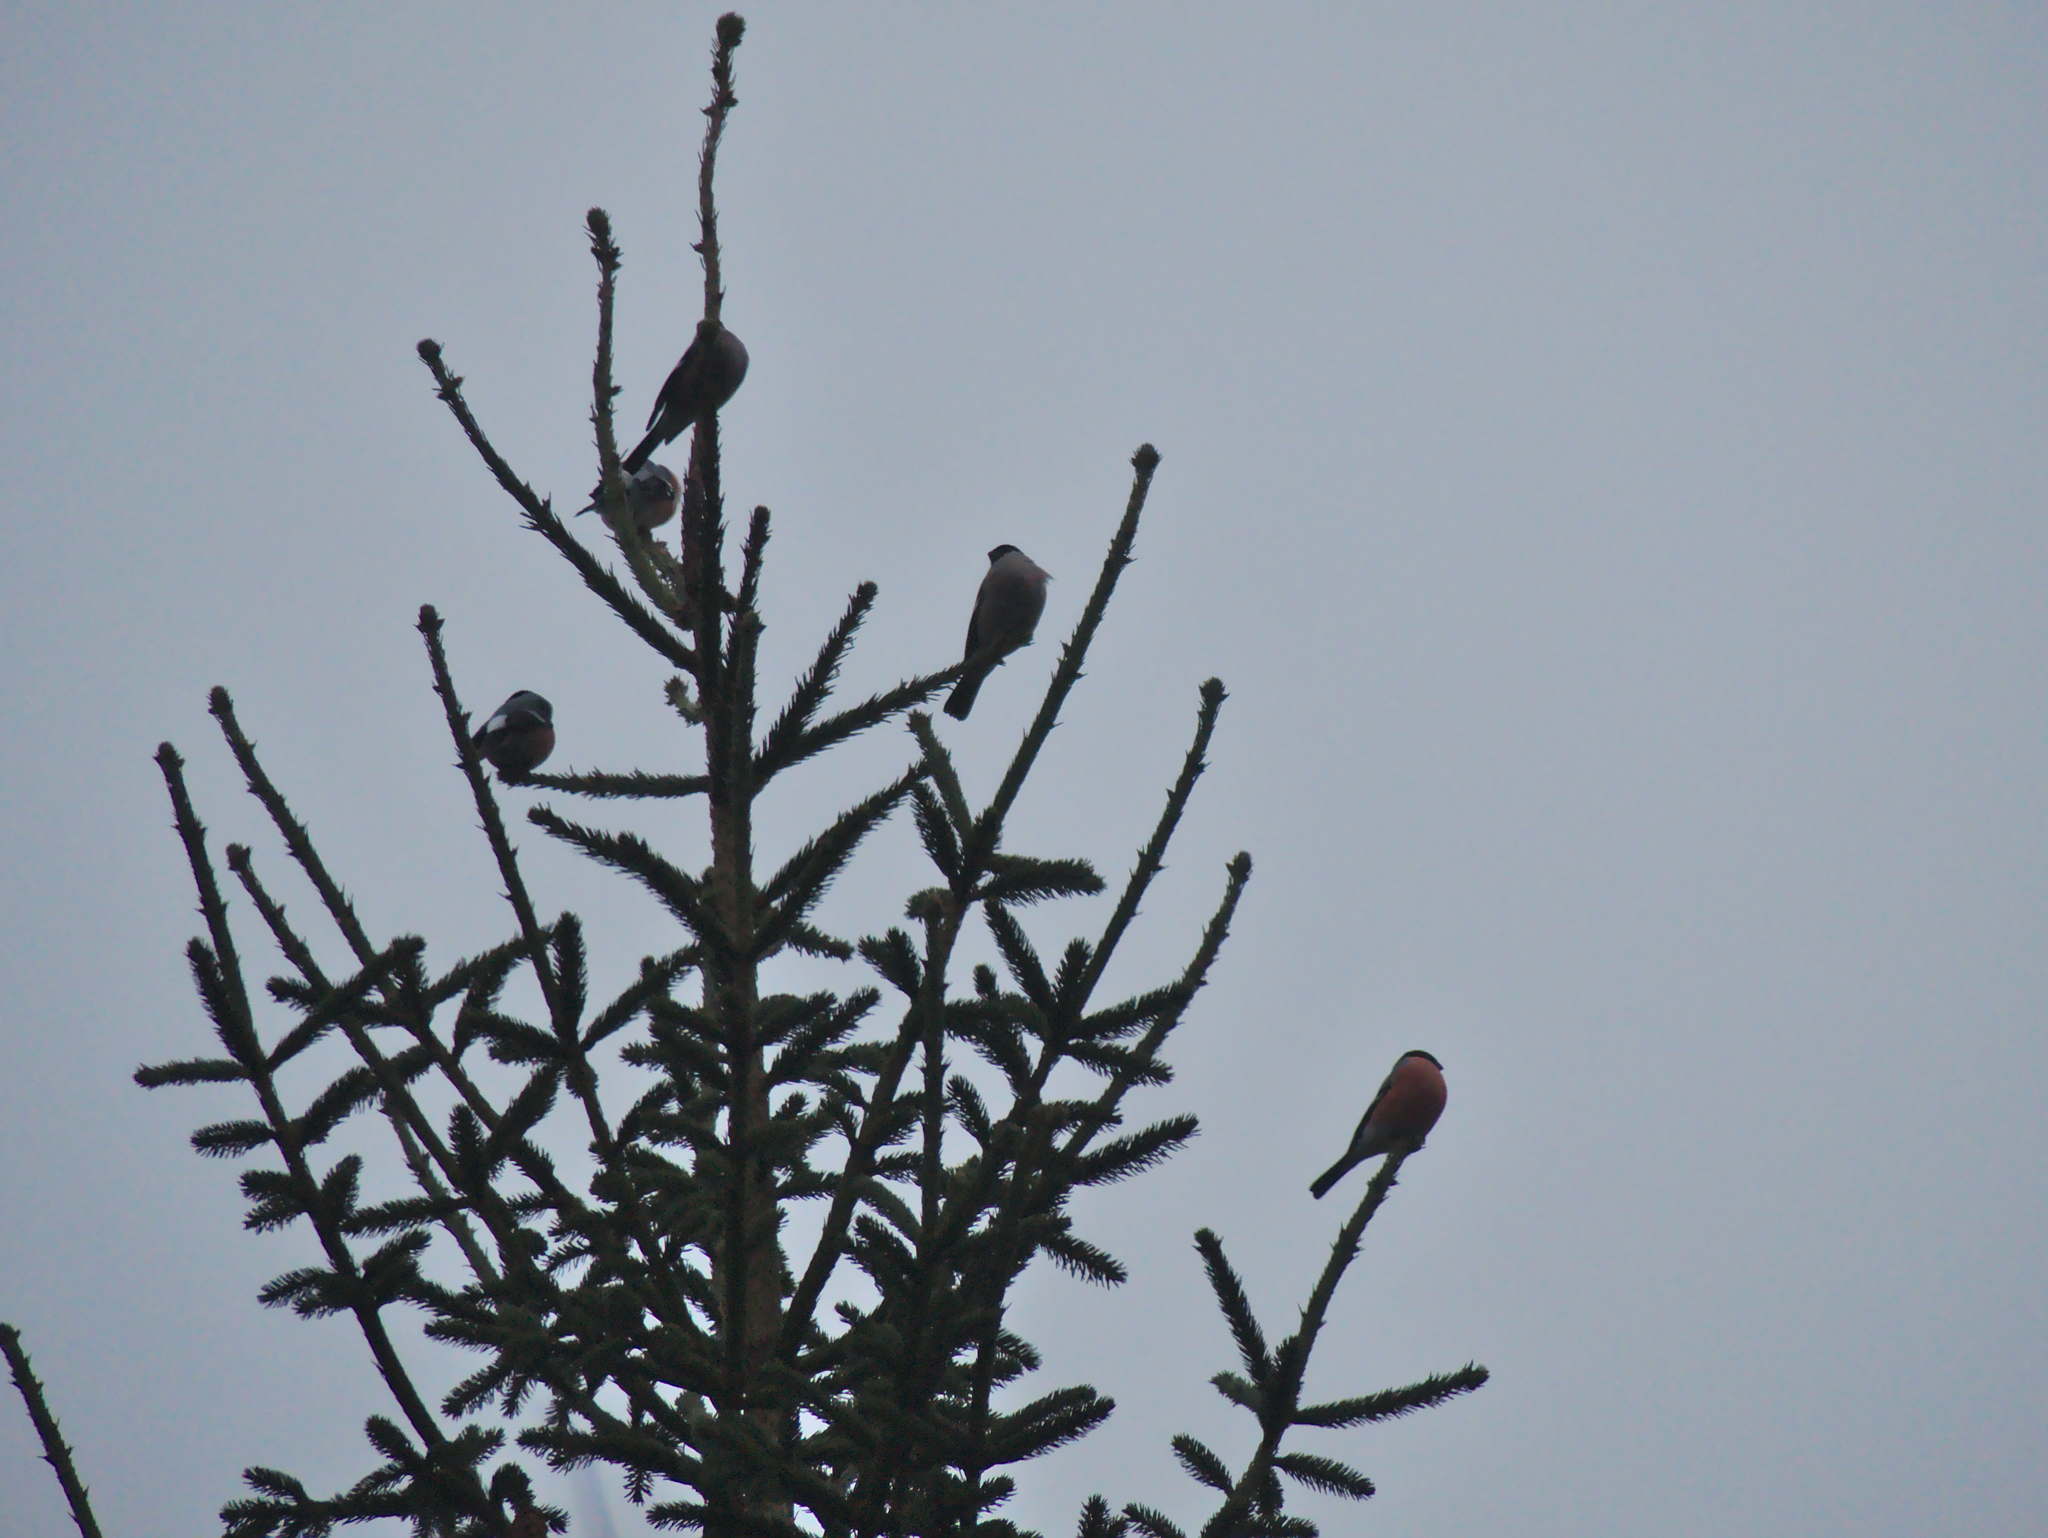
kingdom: Animalia
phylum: Chordata
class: Aves
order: Passeriformes
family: Fringillidae
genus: Pyrrhula
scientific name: Pyrrhula pyrrhula
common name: Eurasian bullfinch
